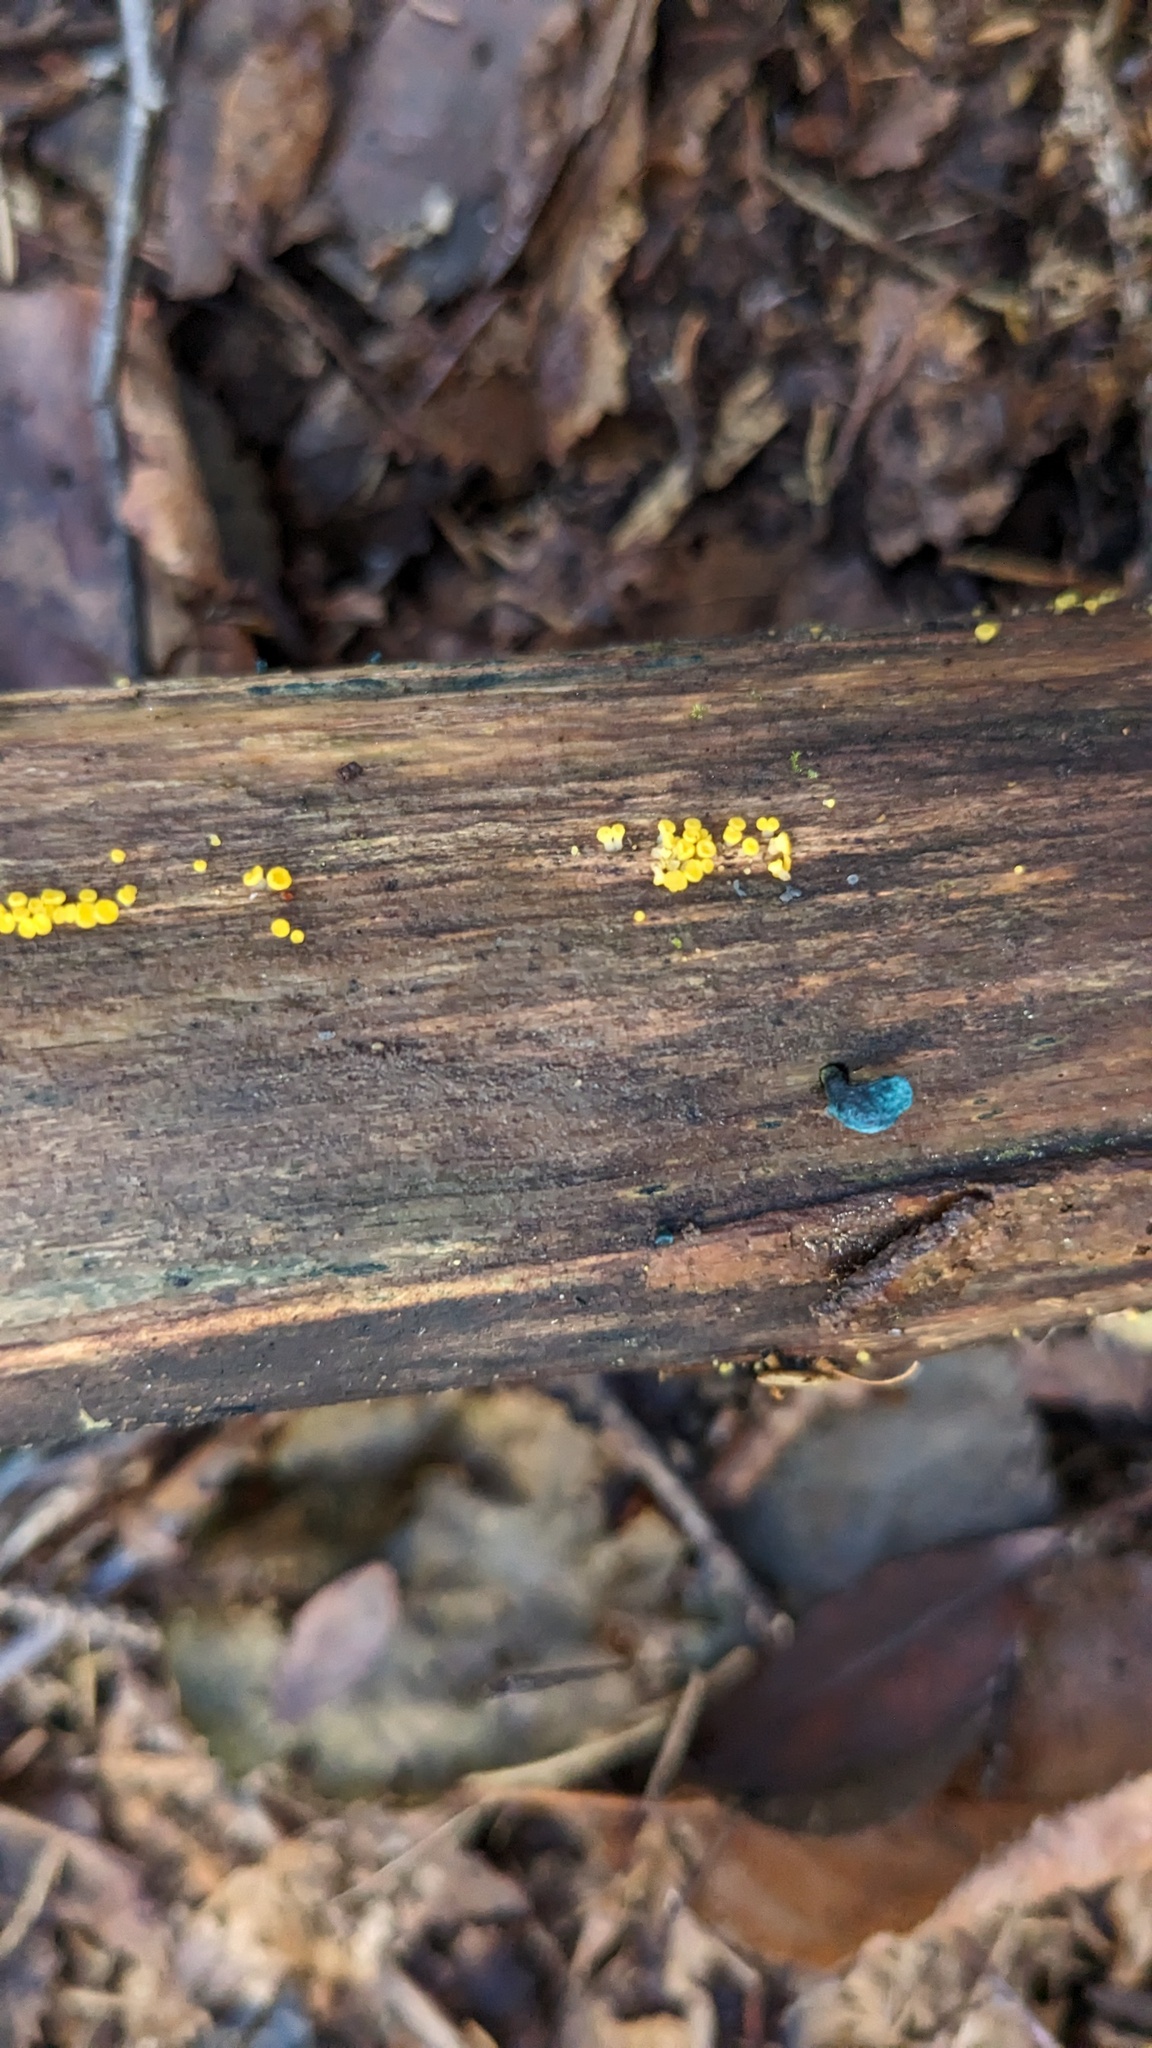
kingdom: Fungi
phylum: Ascomycota
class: Leotiomycetes
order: Helotiales
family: Pezizellaceae
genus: Calycina
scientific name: Calycina citrina
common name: Yellow fairy cups
